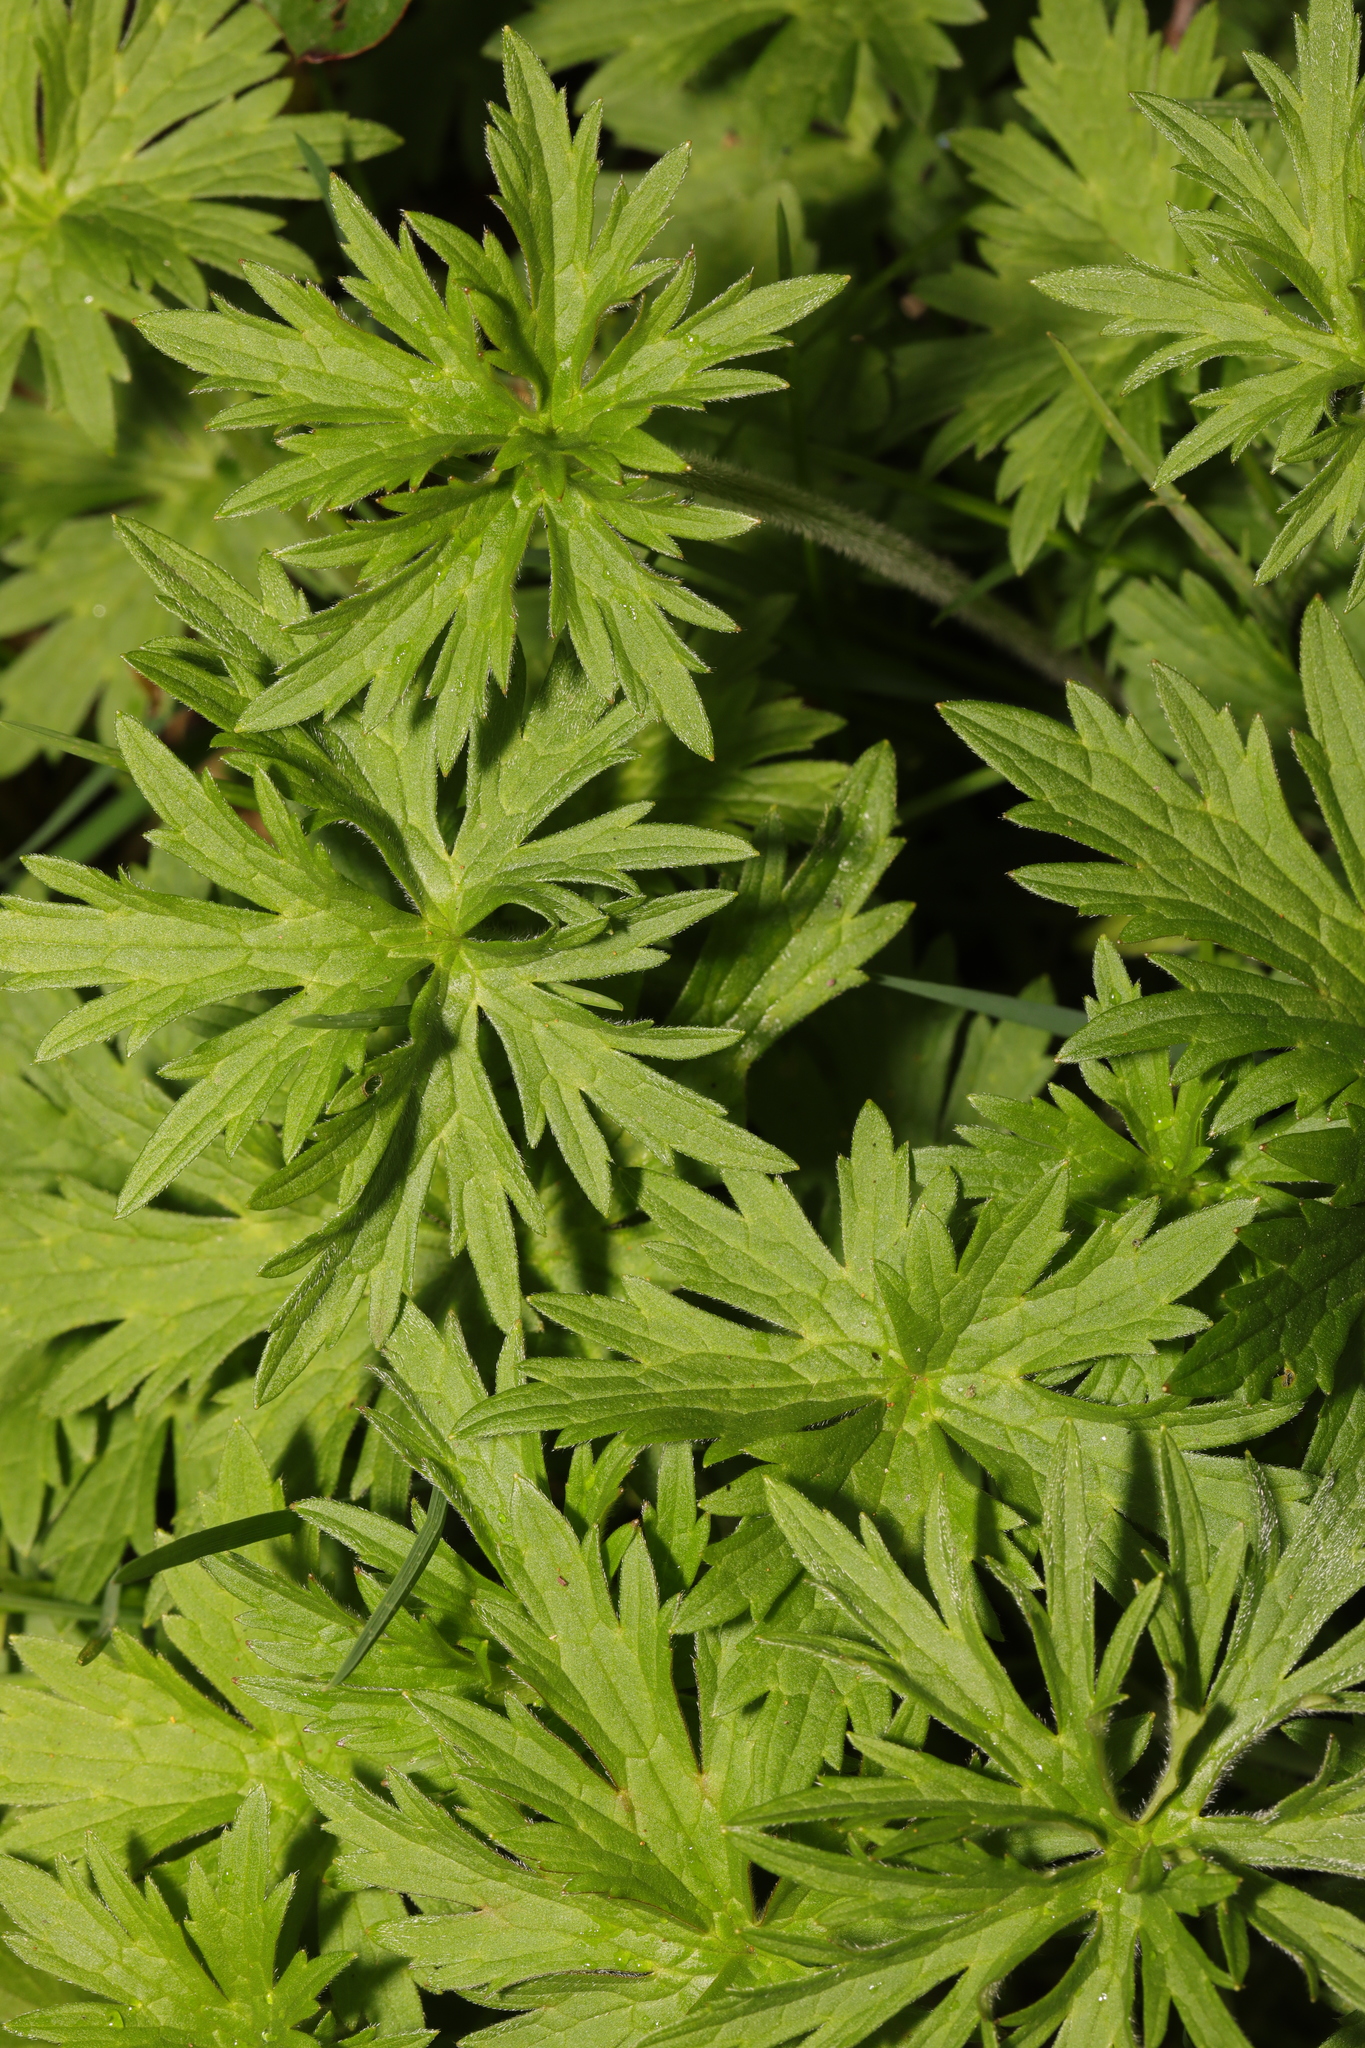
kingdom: Plantae
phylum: Tracheophyta
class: Magnoliopsida
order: Ranunculales
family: Ranunculaceae
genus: Ranunculus
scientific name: Ranunculus acris
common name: Meadow buttercup
